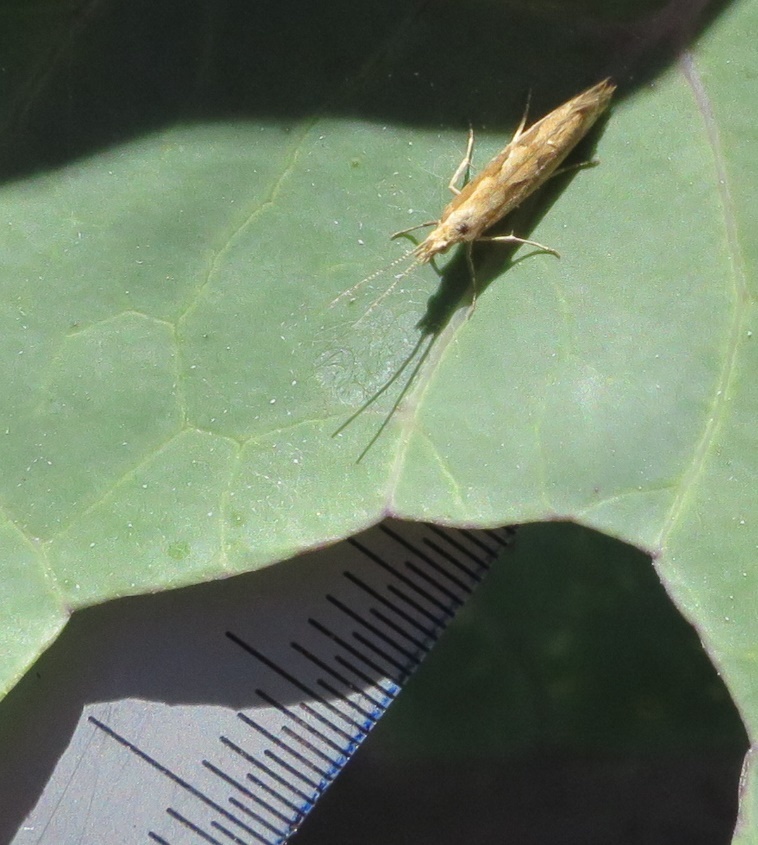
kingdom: Animalia
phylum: Arthropoda
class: Insecta
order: Lepidoptera
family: Plutellidae
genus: Plutella
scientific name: Plutella xylostella
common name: Diamond-back moth
